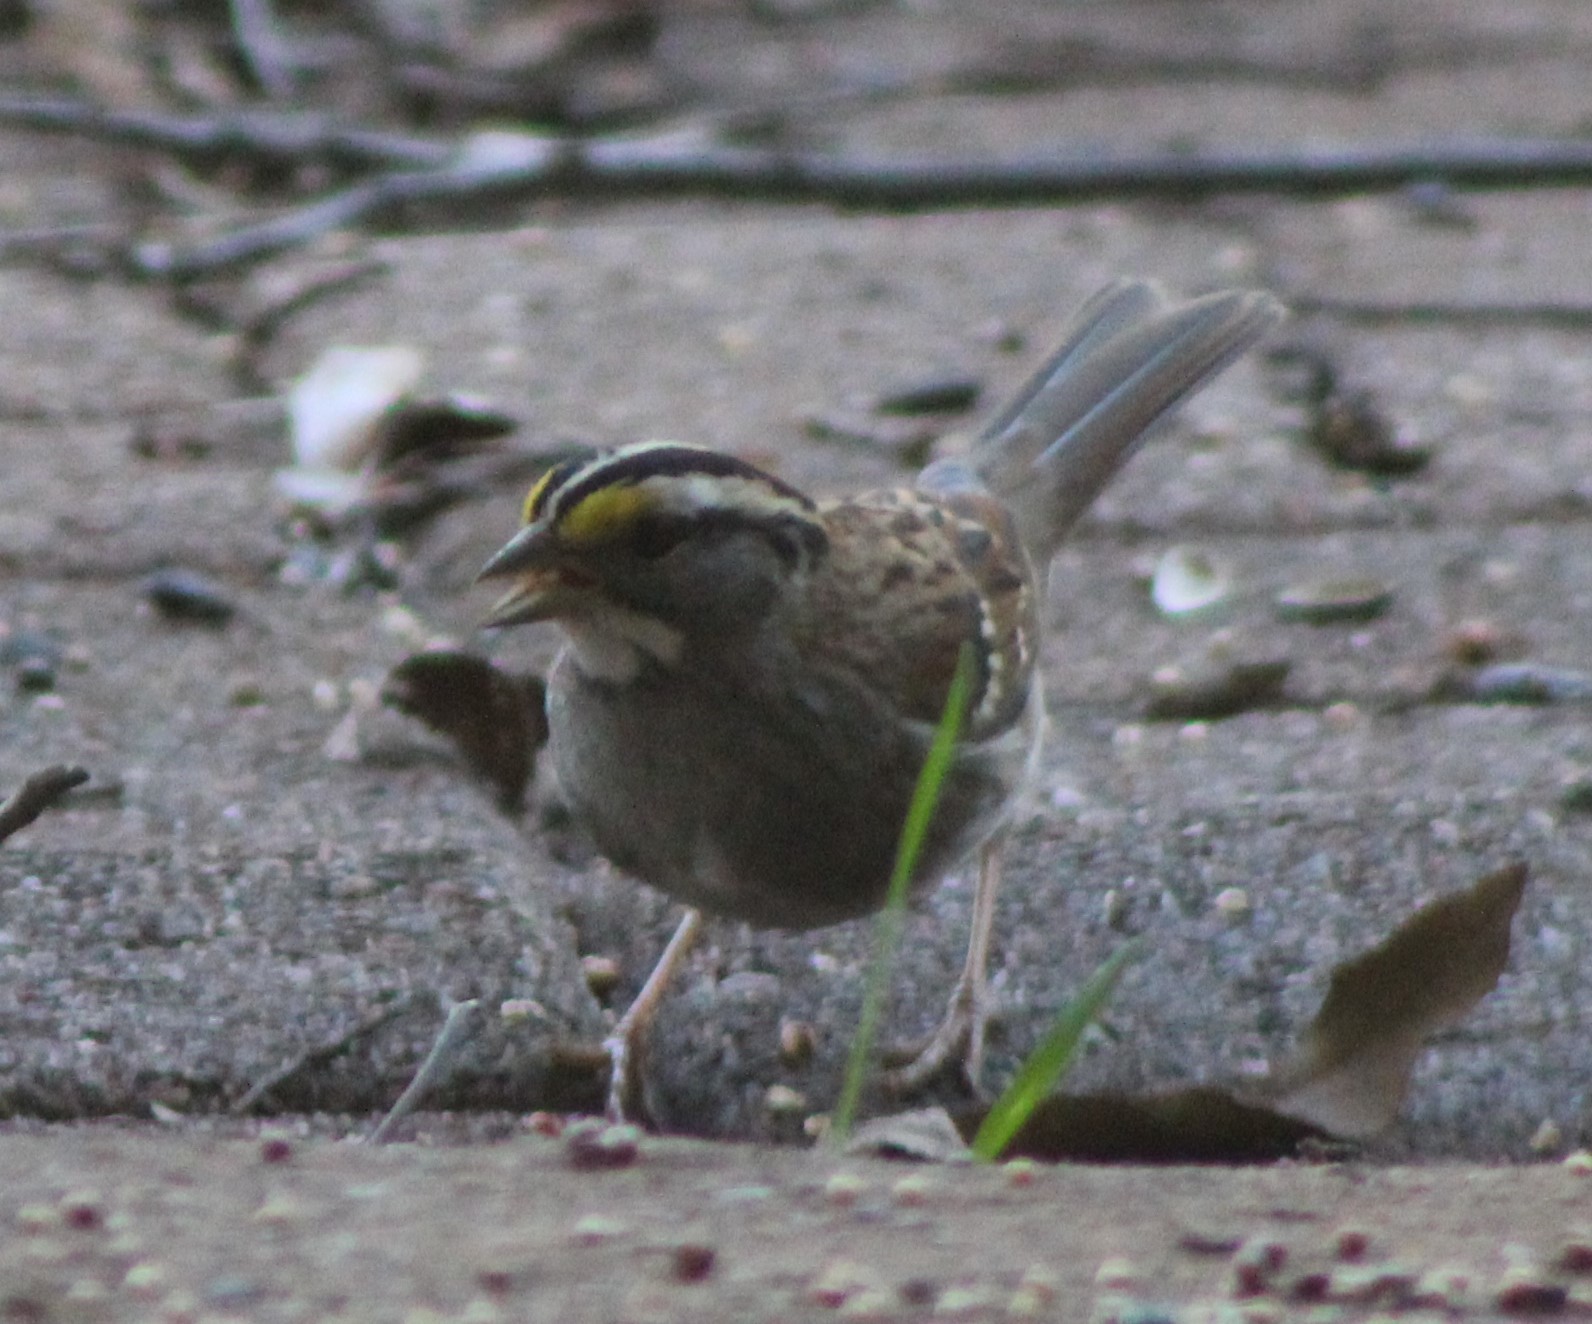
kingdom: Animalia
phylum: Chordata
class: Aves
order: Passeriformes
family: Passerellidae
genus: Zonotrichia
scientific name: Zonotrichia albicollis
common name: White-throated sparrow
